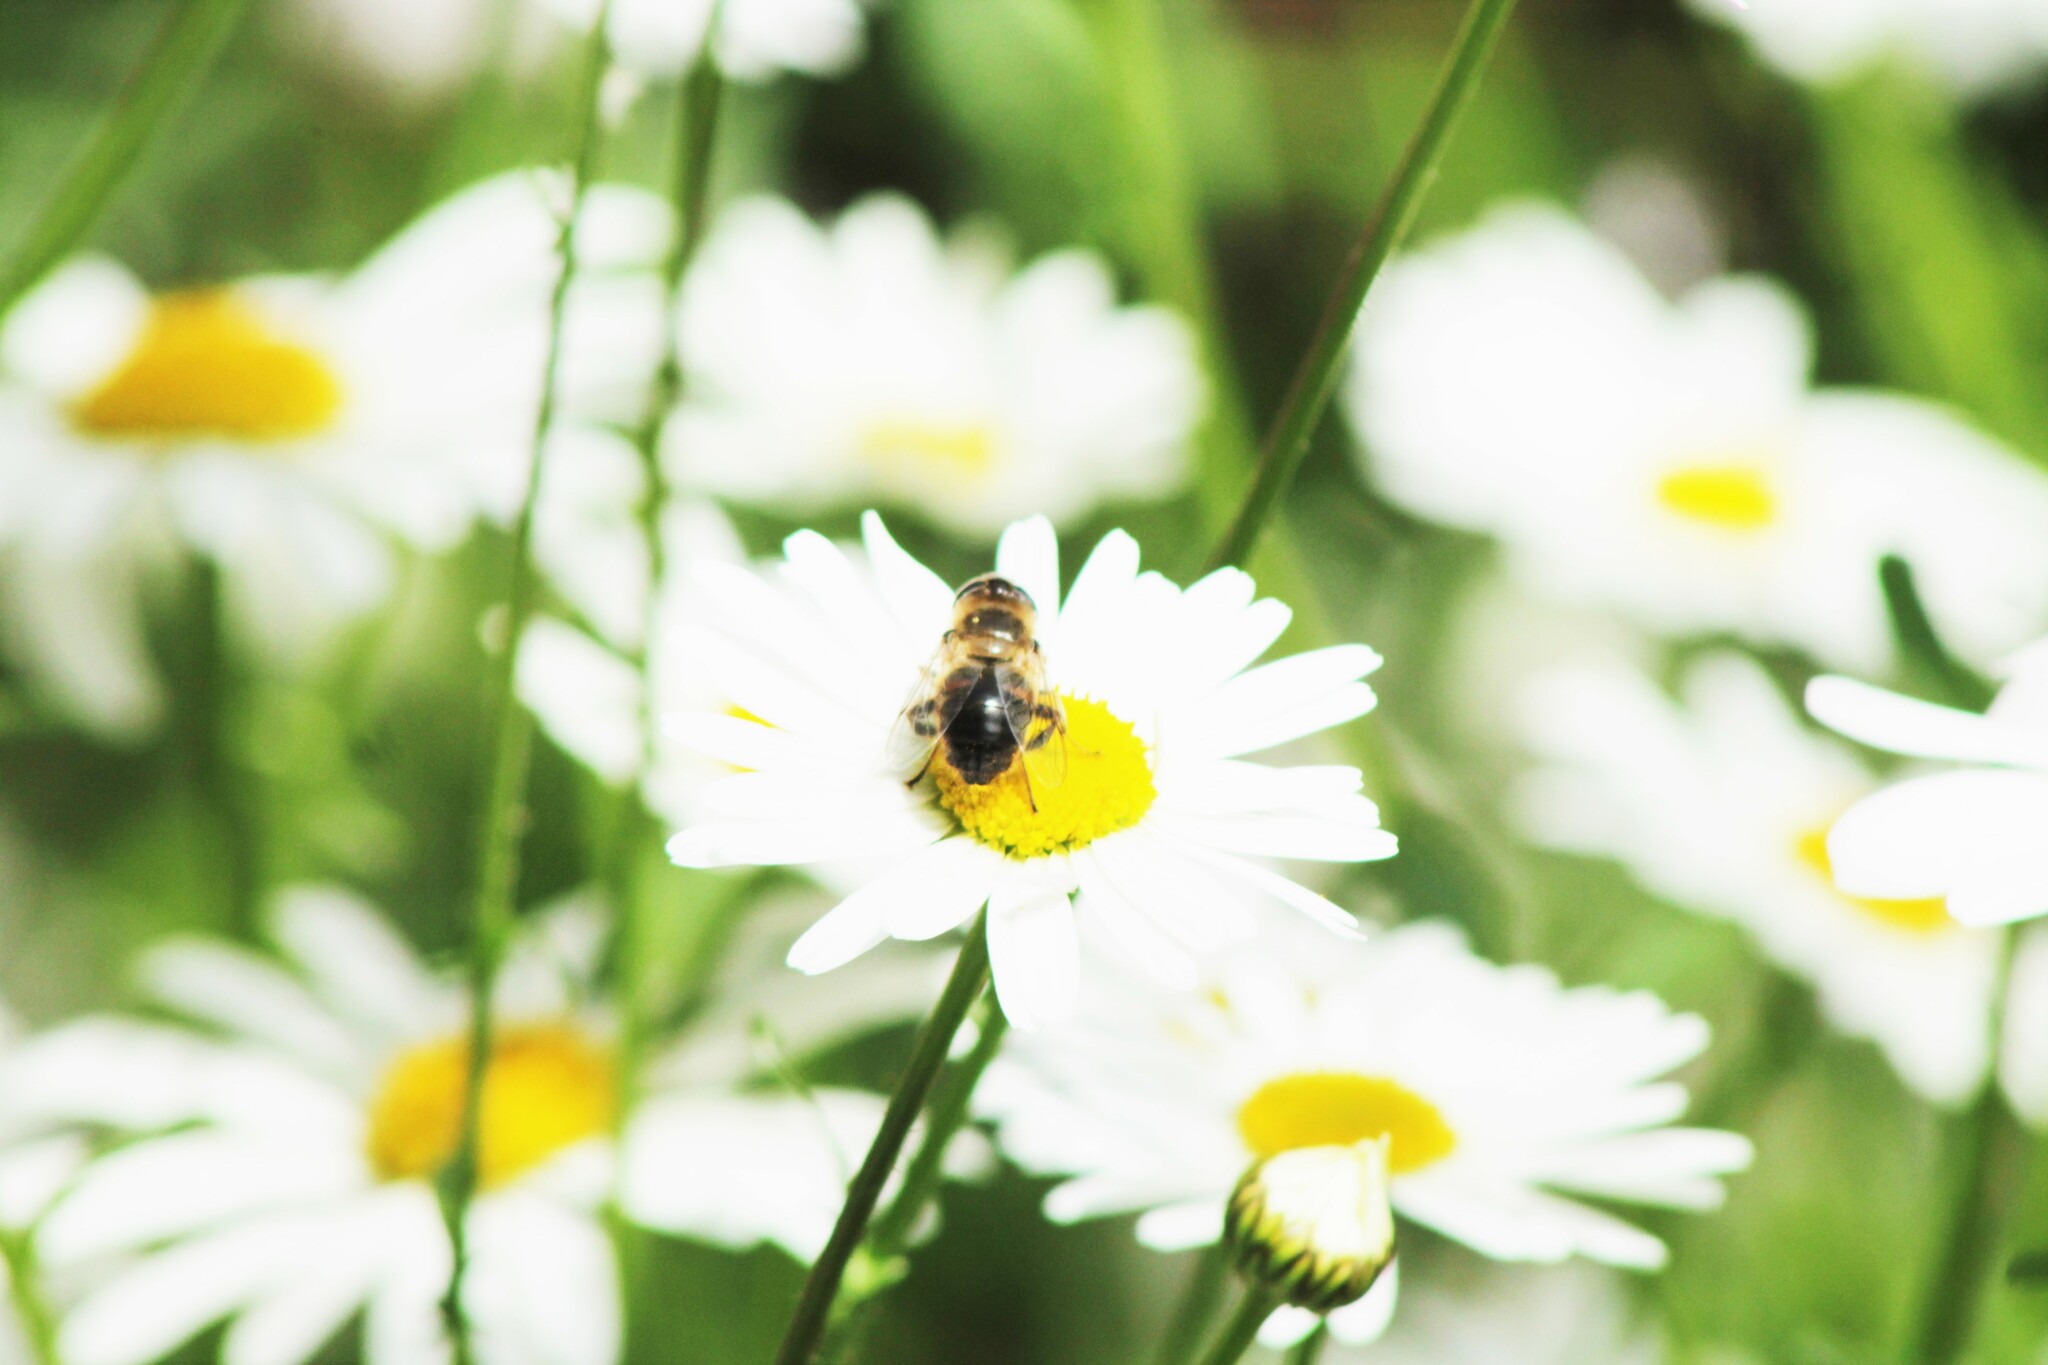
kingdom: Animalia
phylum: Arthropoda
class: Insecta
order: Diptera
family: Syrphidae
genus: Eristalis
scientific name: Eristalis tenax
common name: Drone fly
